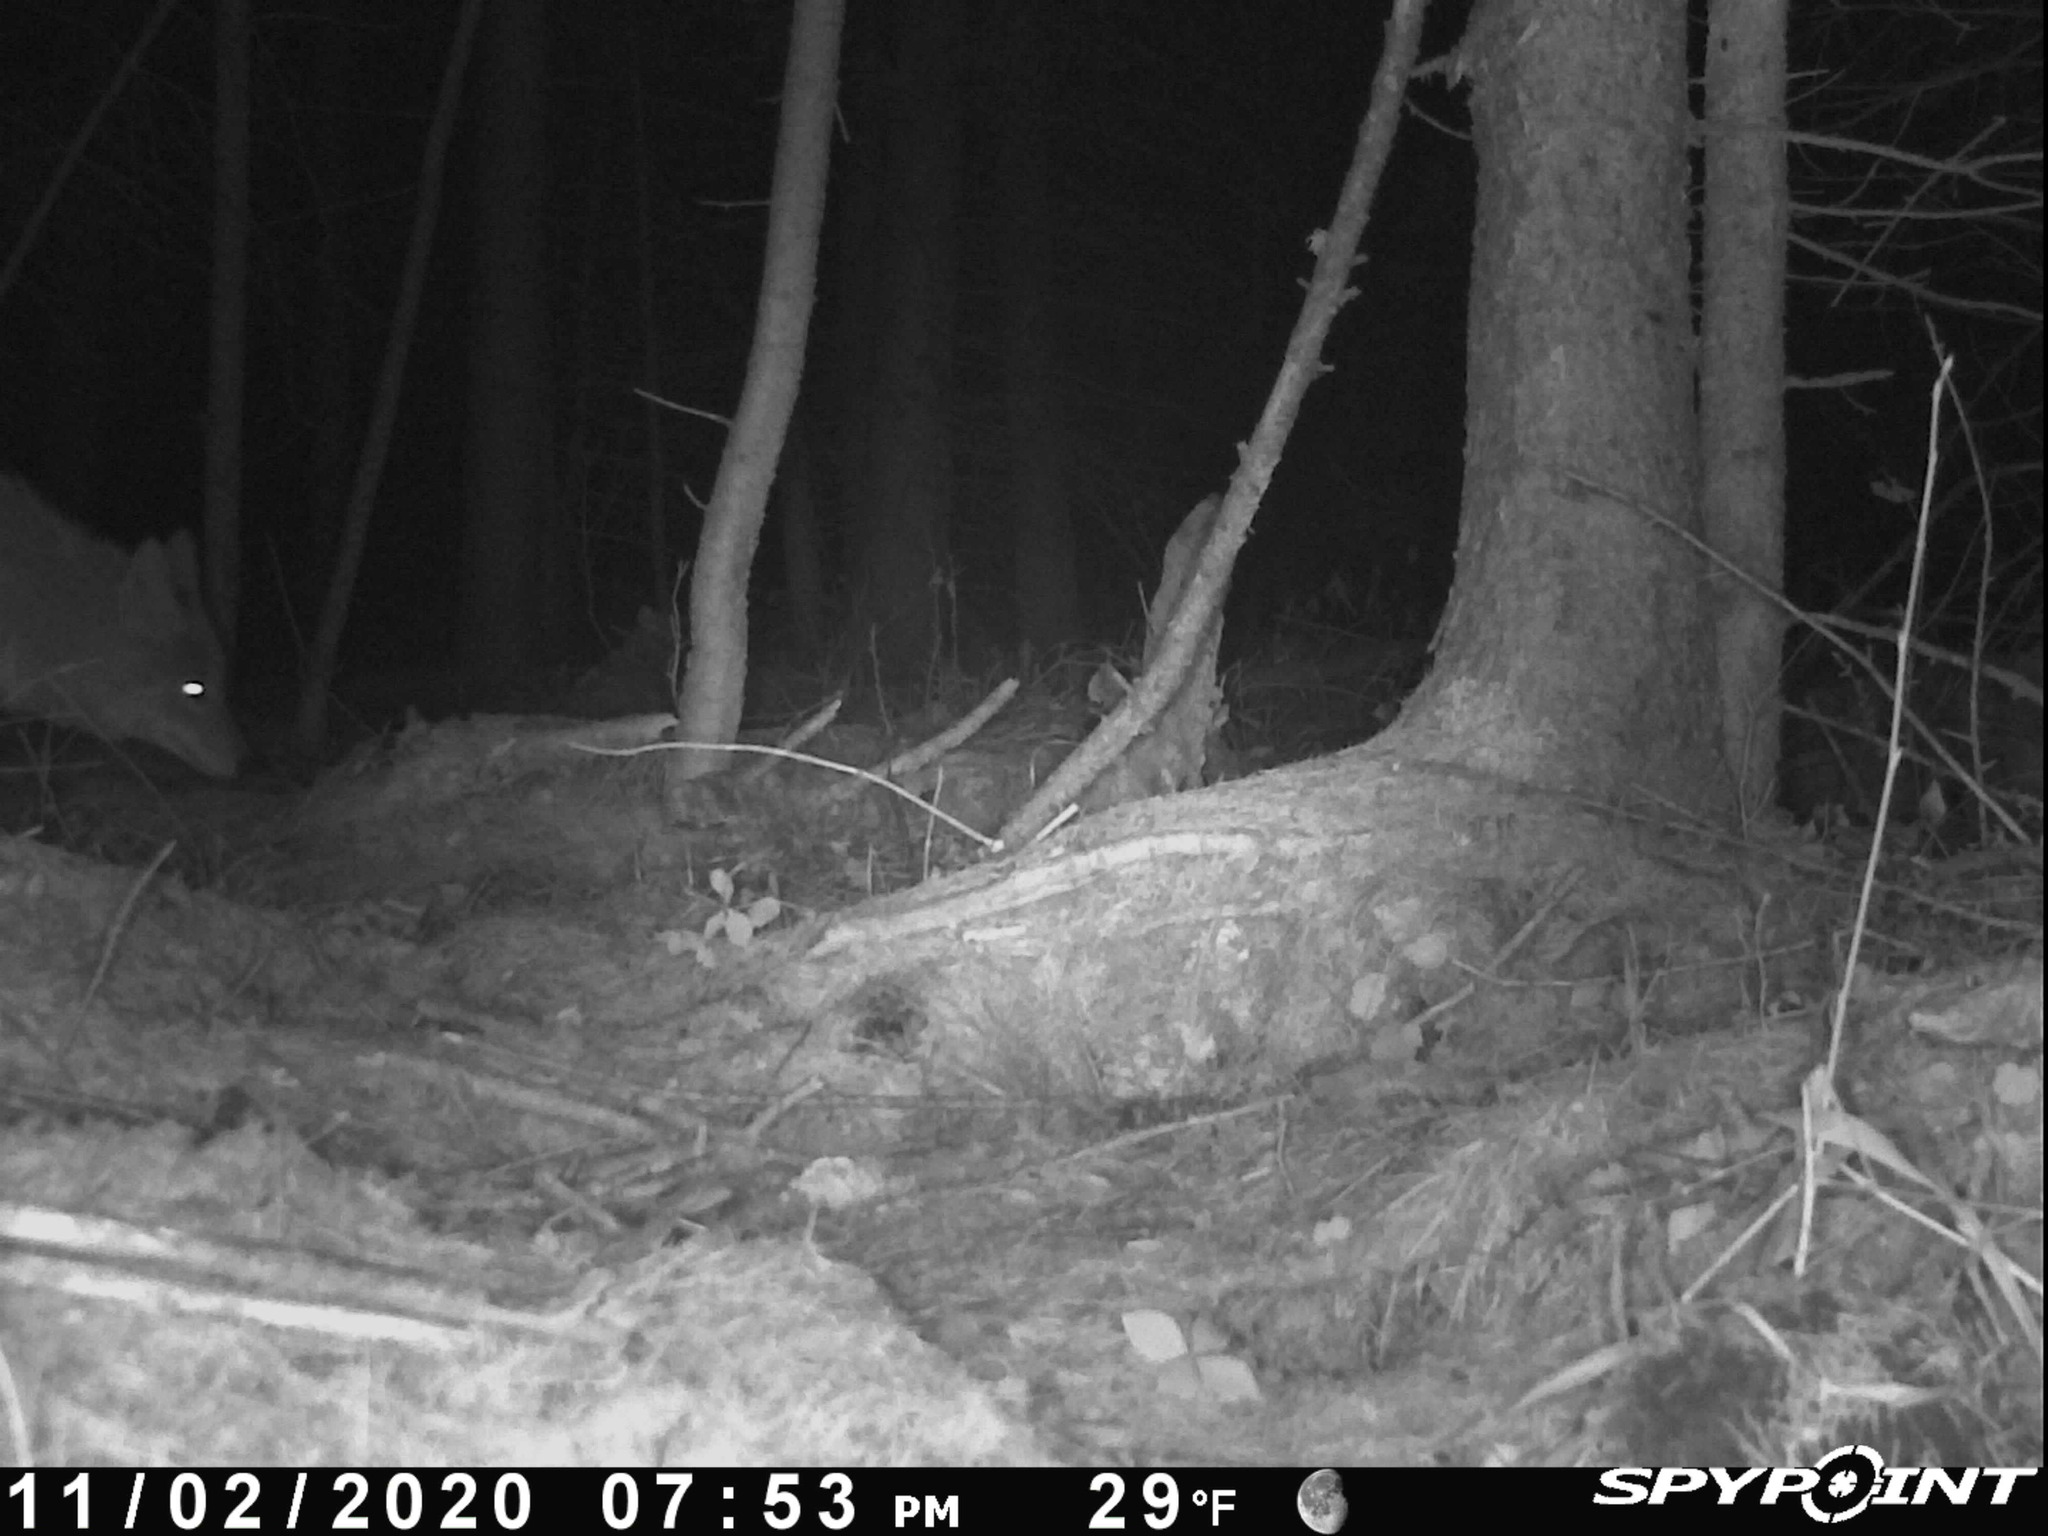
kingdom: Animalia
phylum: Chordata
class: Mammalia
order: Carnivora
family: Canidae
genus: Vulpes
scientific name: Vulpes vulpes
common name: Red fox
